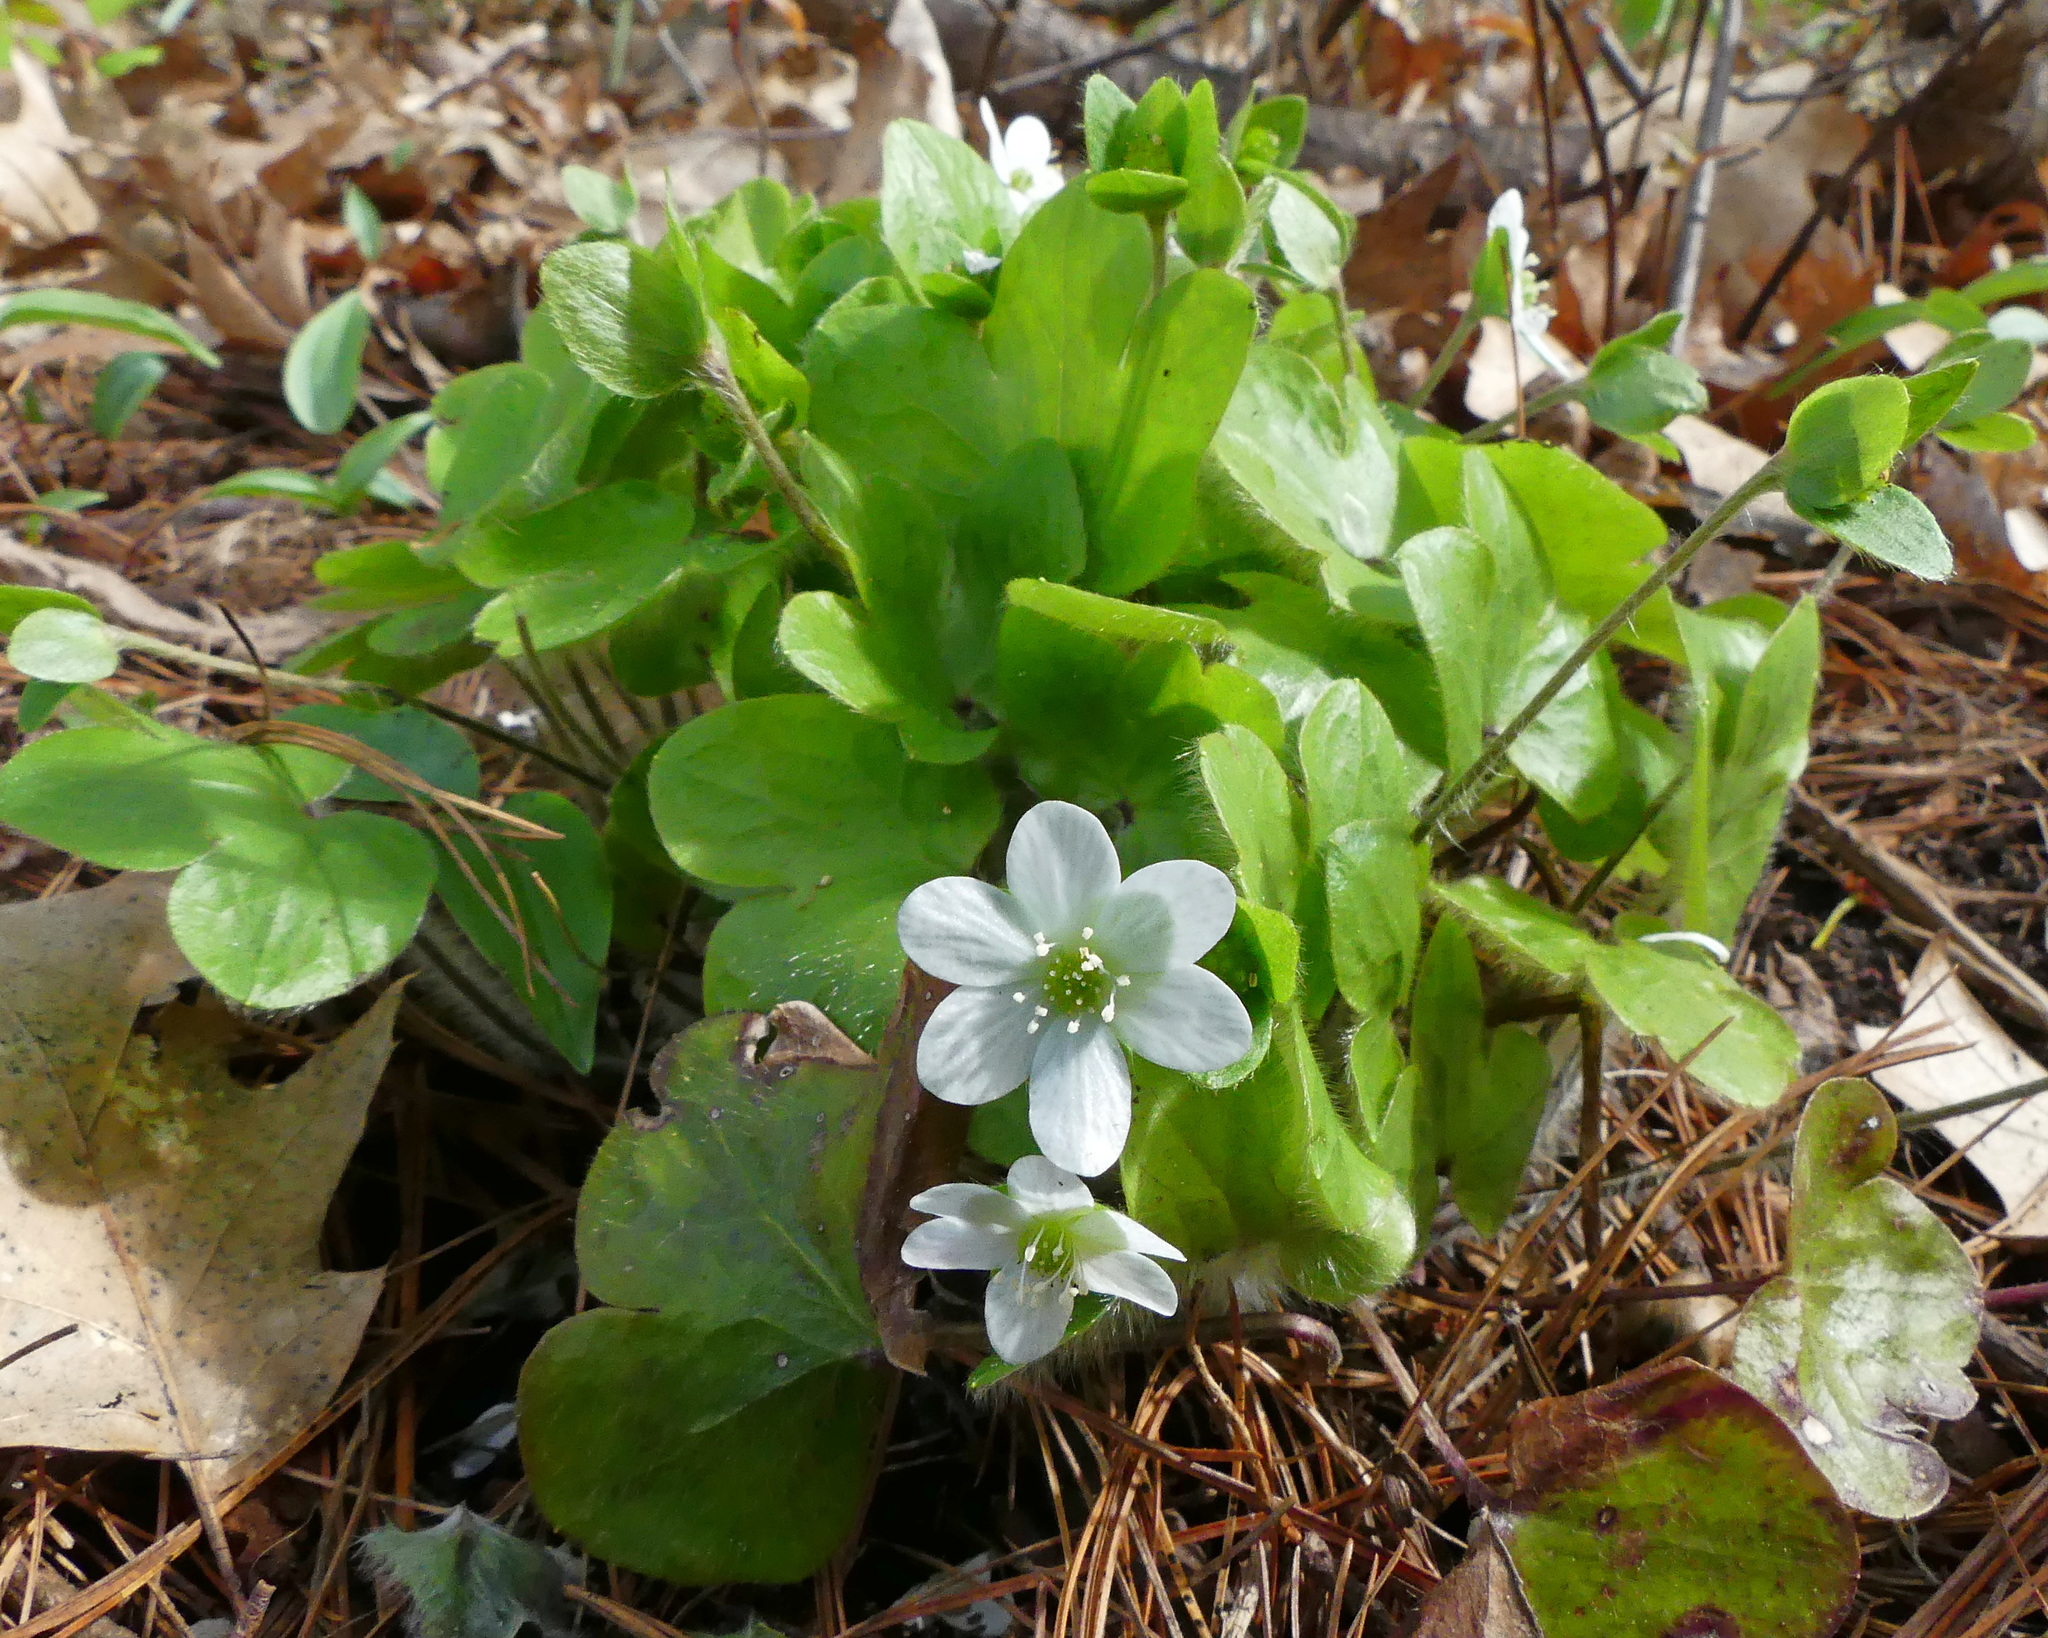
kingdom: Plantae
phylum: Tracheophyta
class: Magnoliopsida
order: Ranunculales
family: Ranunculaceae
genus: Hepatica
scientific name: Hepatica americana
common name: American hepatica
